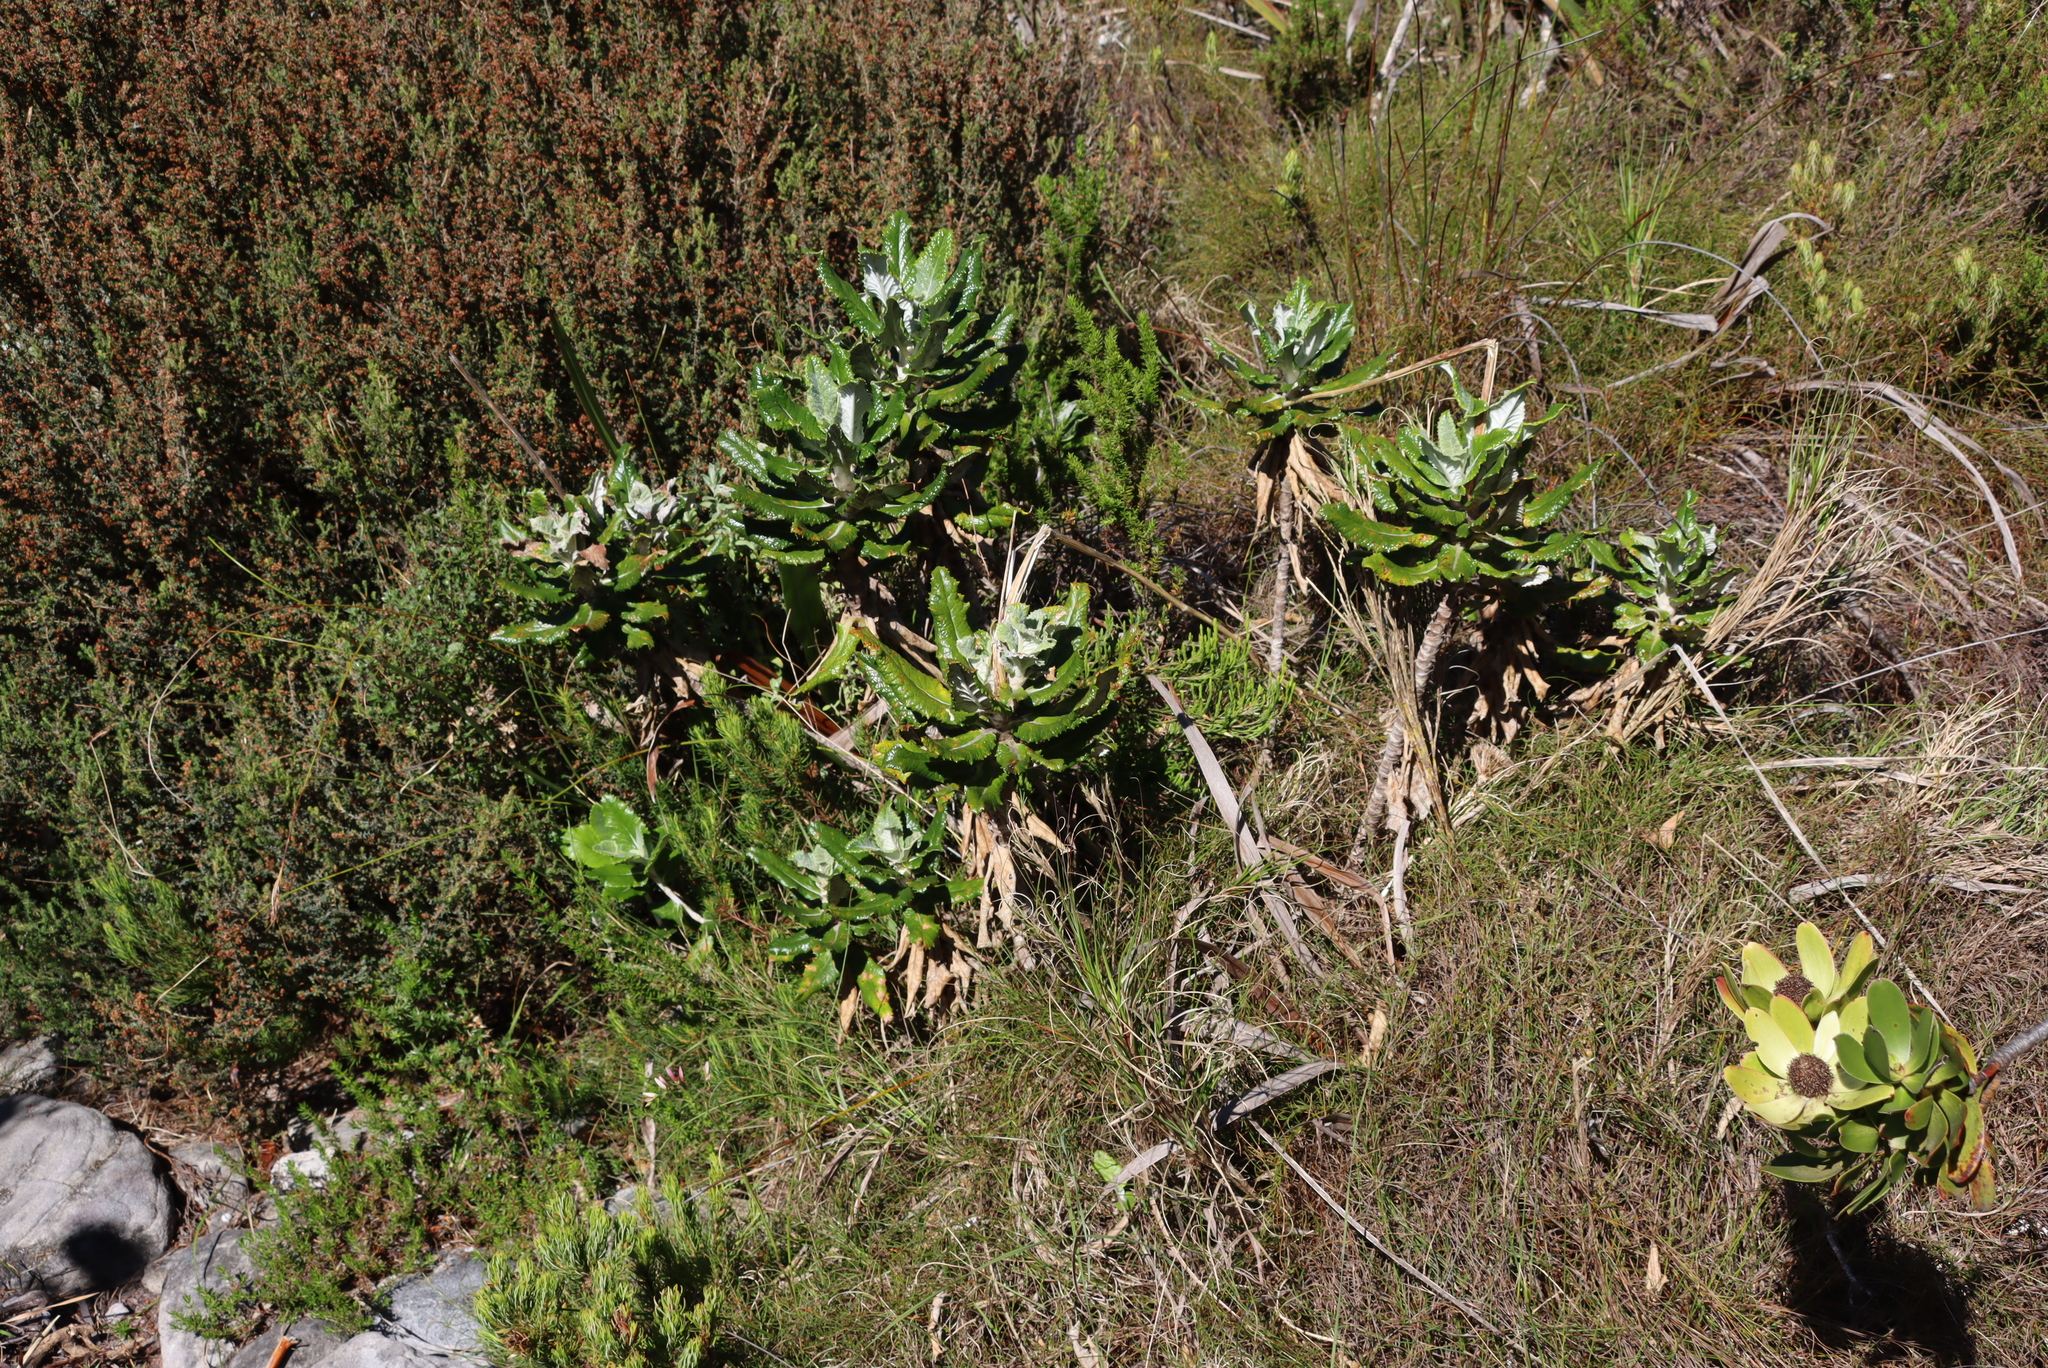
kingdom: Plantae
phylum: Tracheophyta
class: Magnoliopsida
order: Apiales
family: Apiaceae
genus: Hermas
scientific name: Hermas villosa
